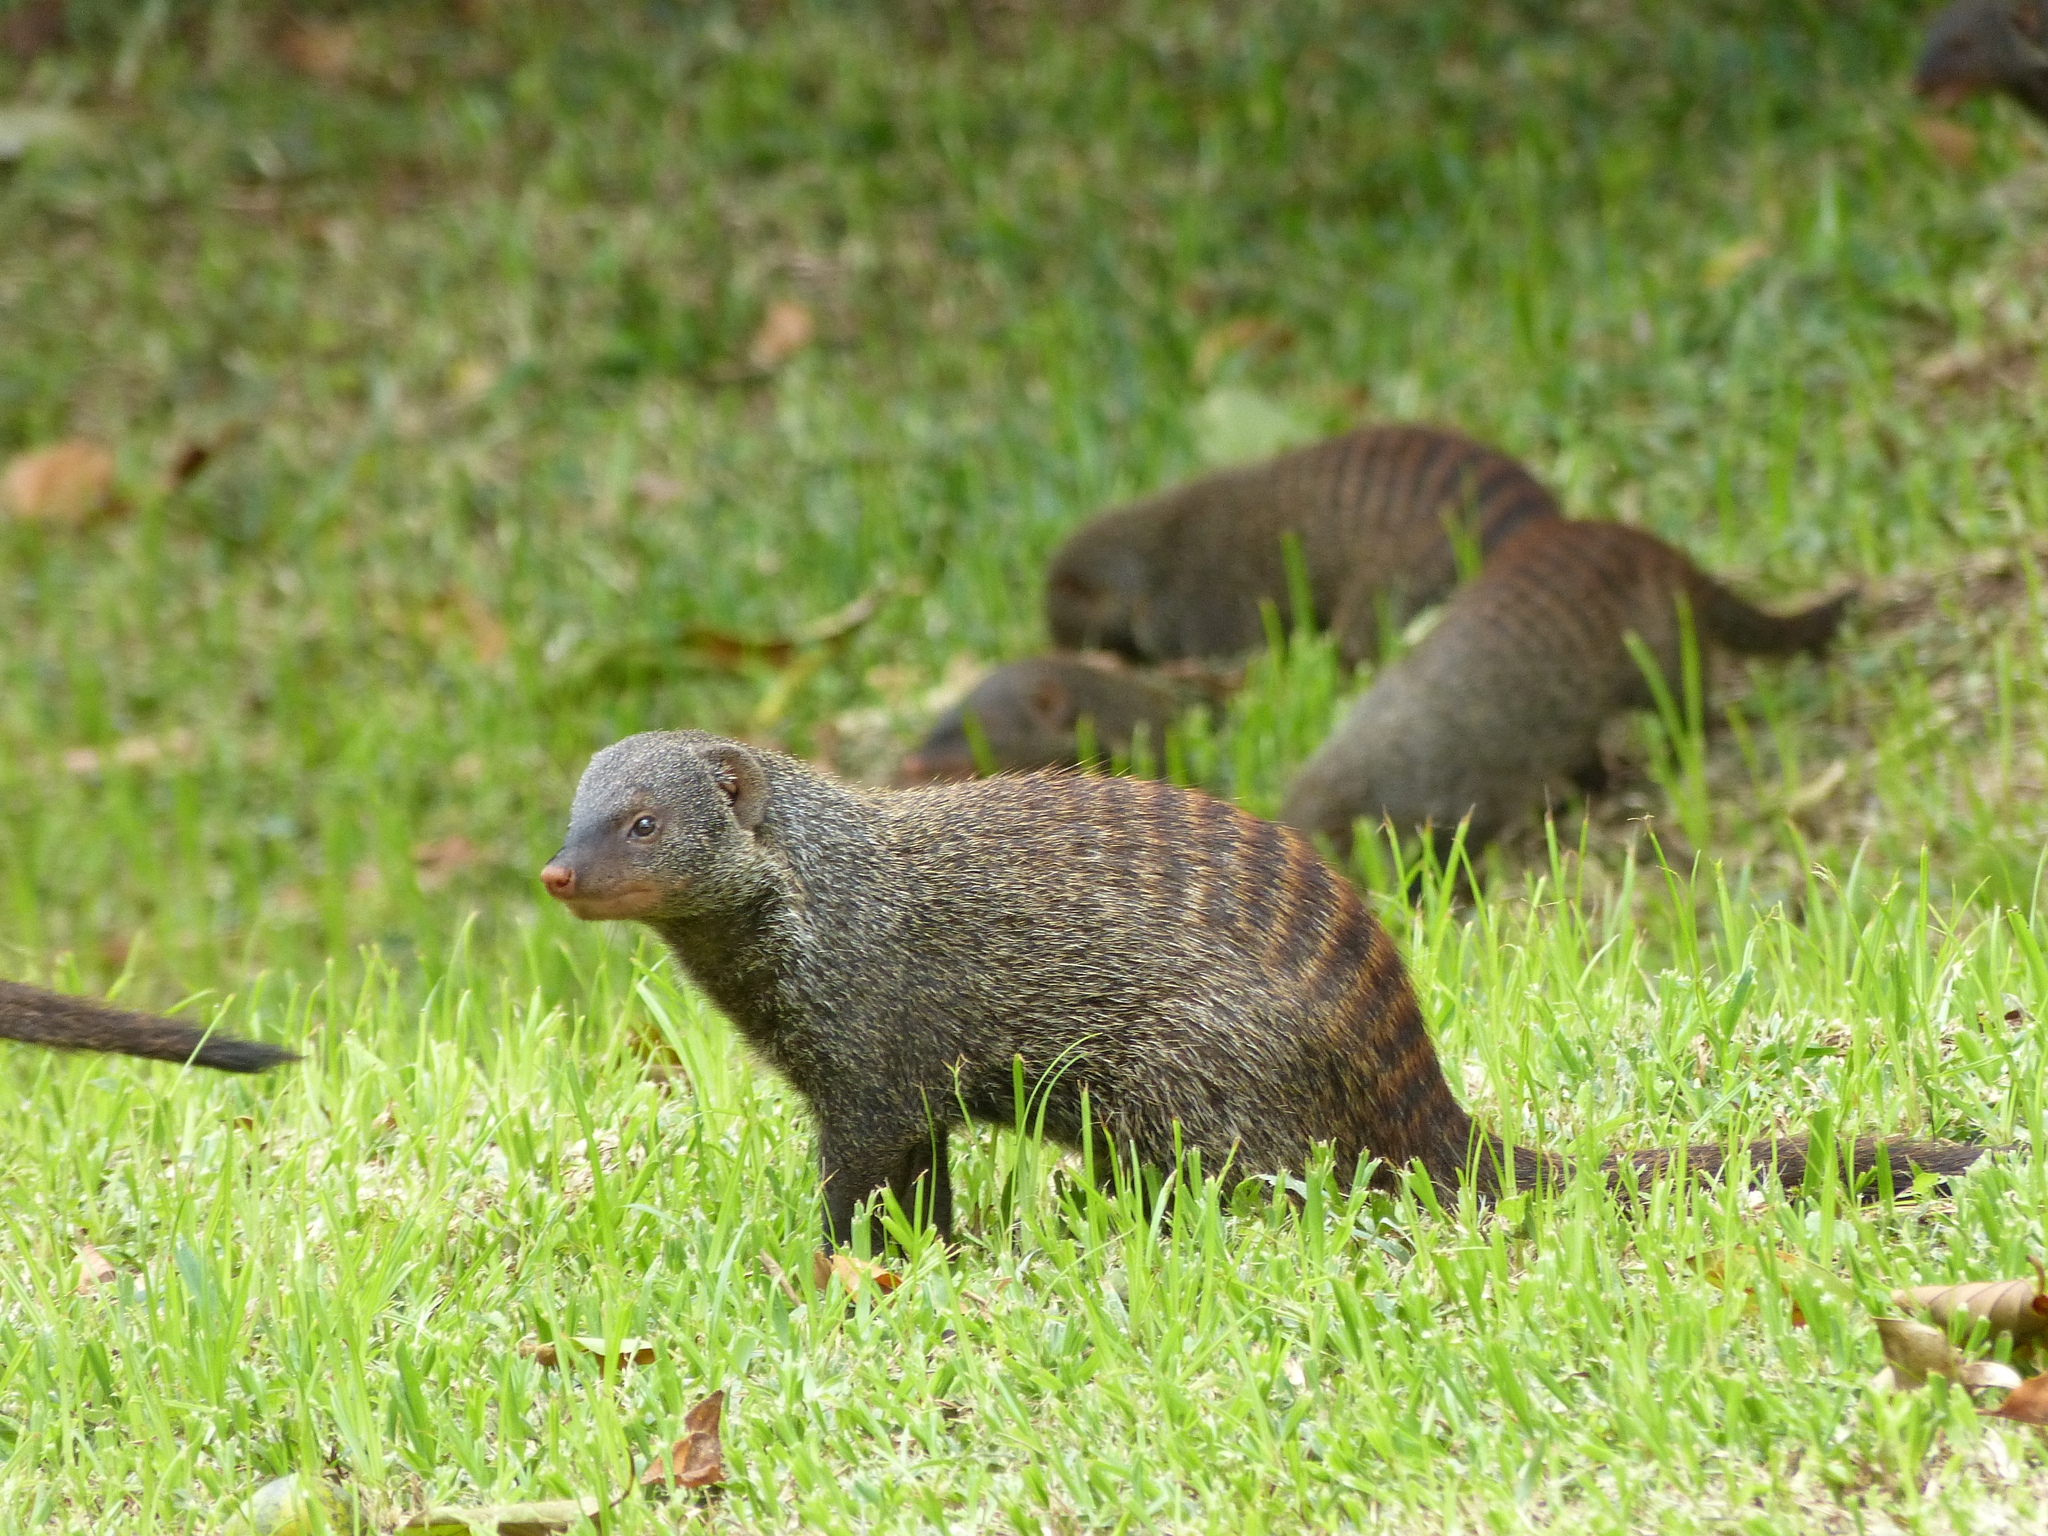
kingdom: Animalia
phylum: Chordata
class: Mammalia
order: Carnivora
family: Herpestidae
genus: Mungos
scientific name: Mungos mungo
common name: Banded mongoose
